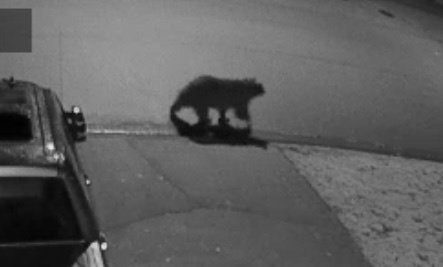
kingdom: Animalia
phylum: Chordata
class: Mammalia
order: Carnivora
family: Ursidae
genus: Ursus
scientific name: Ursus americanus
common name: American black bear
